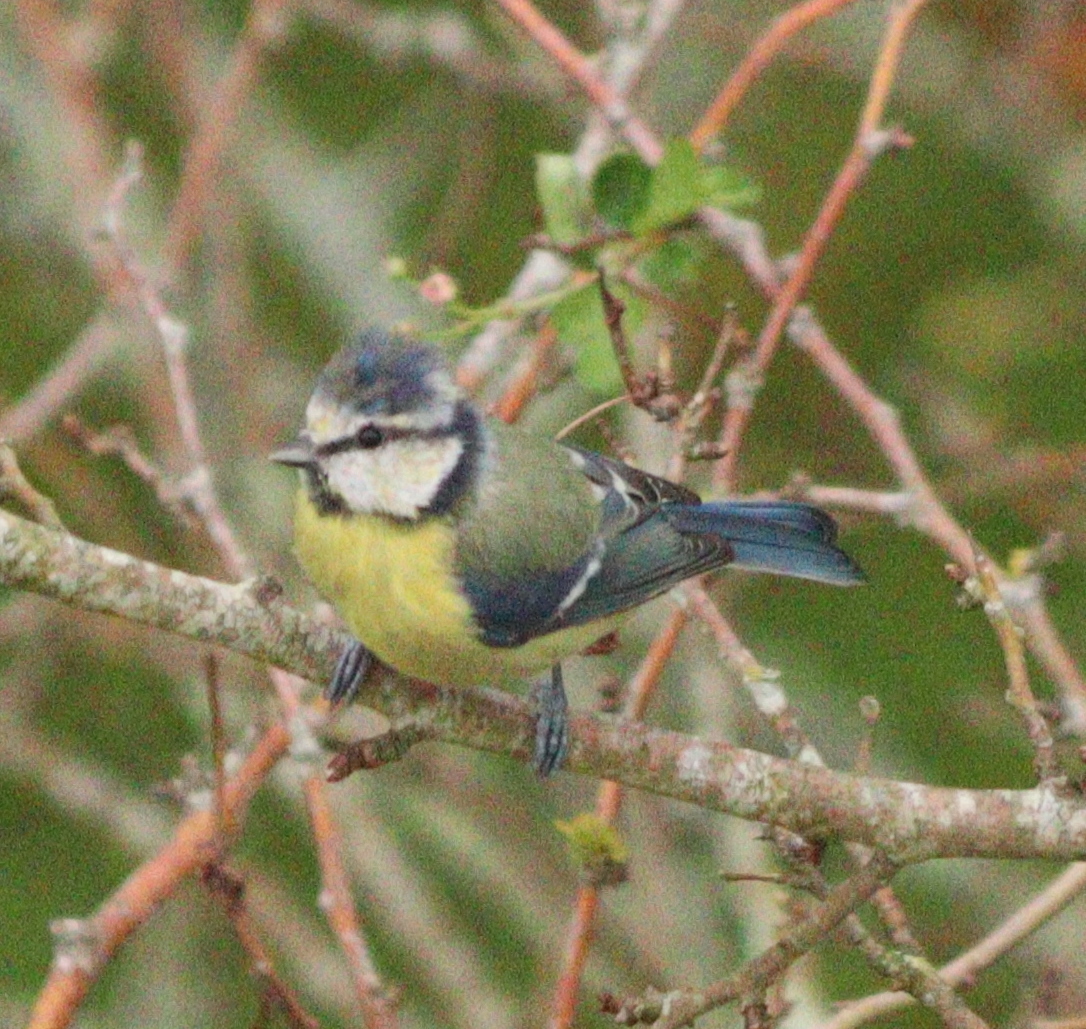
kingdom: Animalia
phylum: Chordata
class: Aves
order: Passeriformes
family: Paridae
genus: Cyanistes
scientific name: Cyanistes caeruleus
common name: Eurasian blue tit
